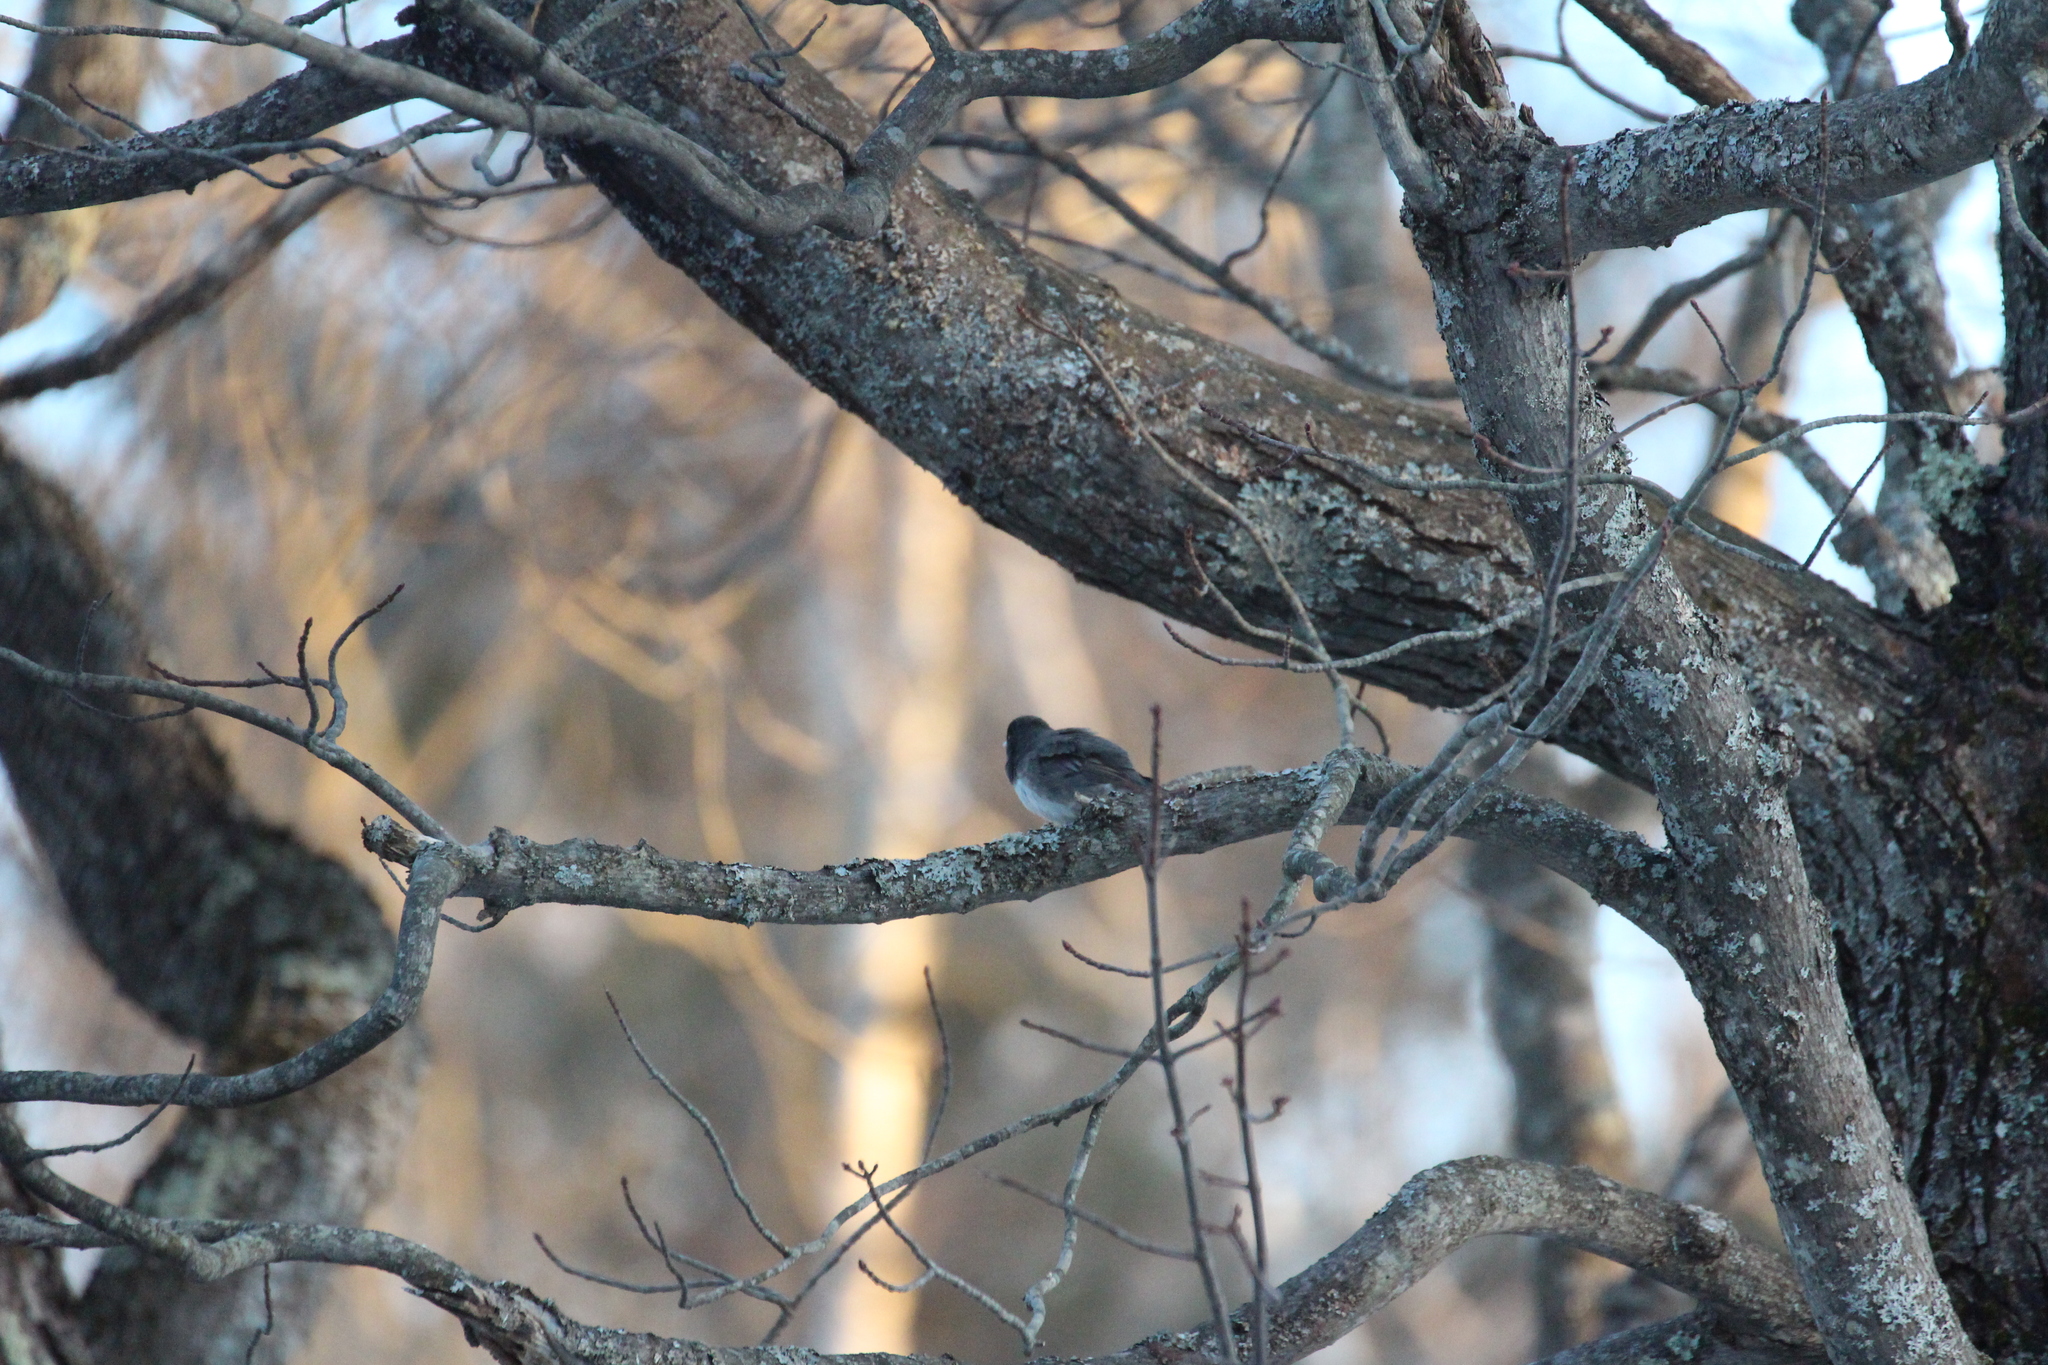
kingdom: Animalia
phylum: Chordata
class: Aves
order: Passeriformes
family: Passerellidae
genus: Junco
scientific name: Junco hyemalis
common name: Dark-eyed junco
